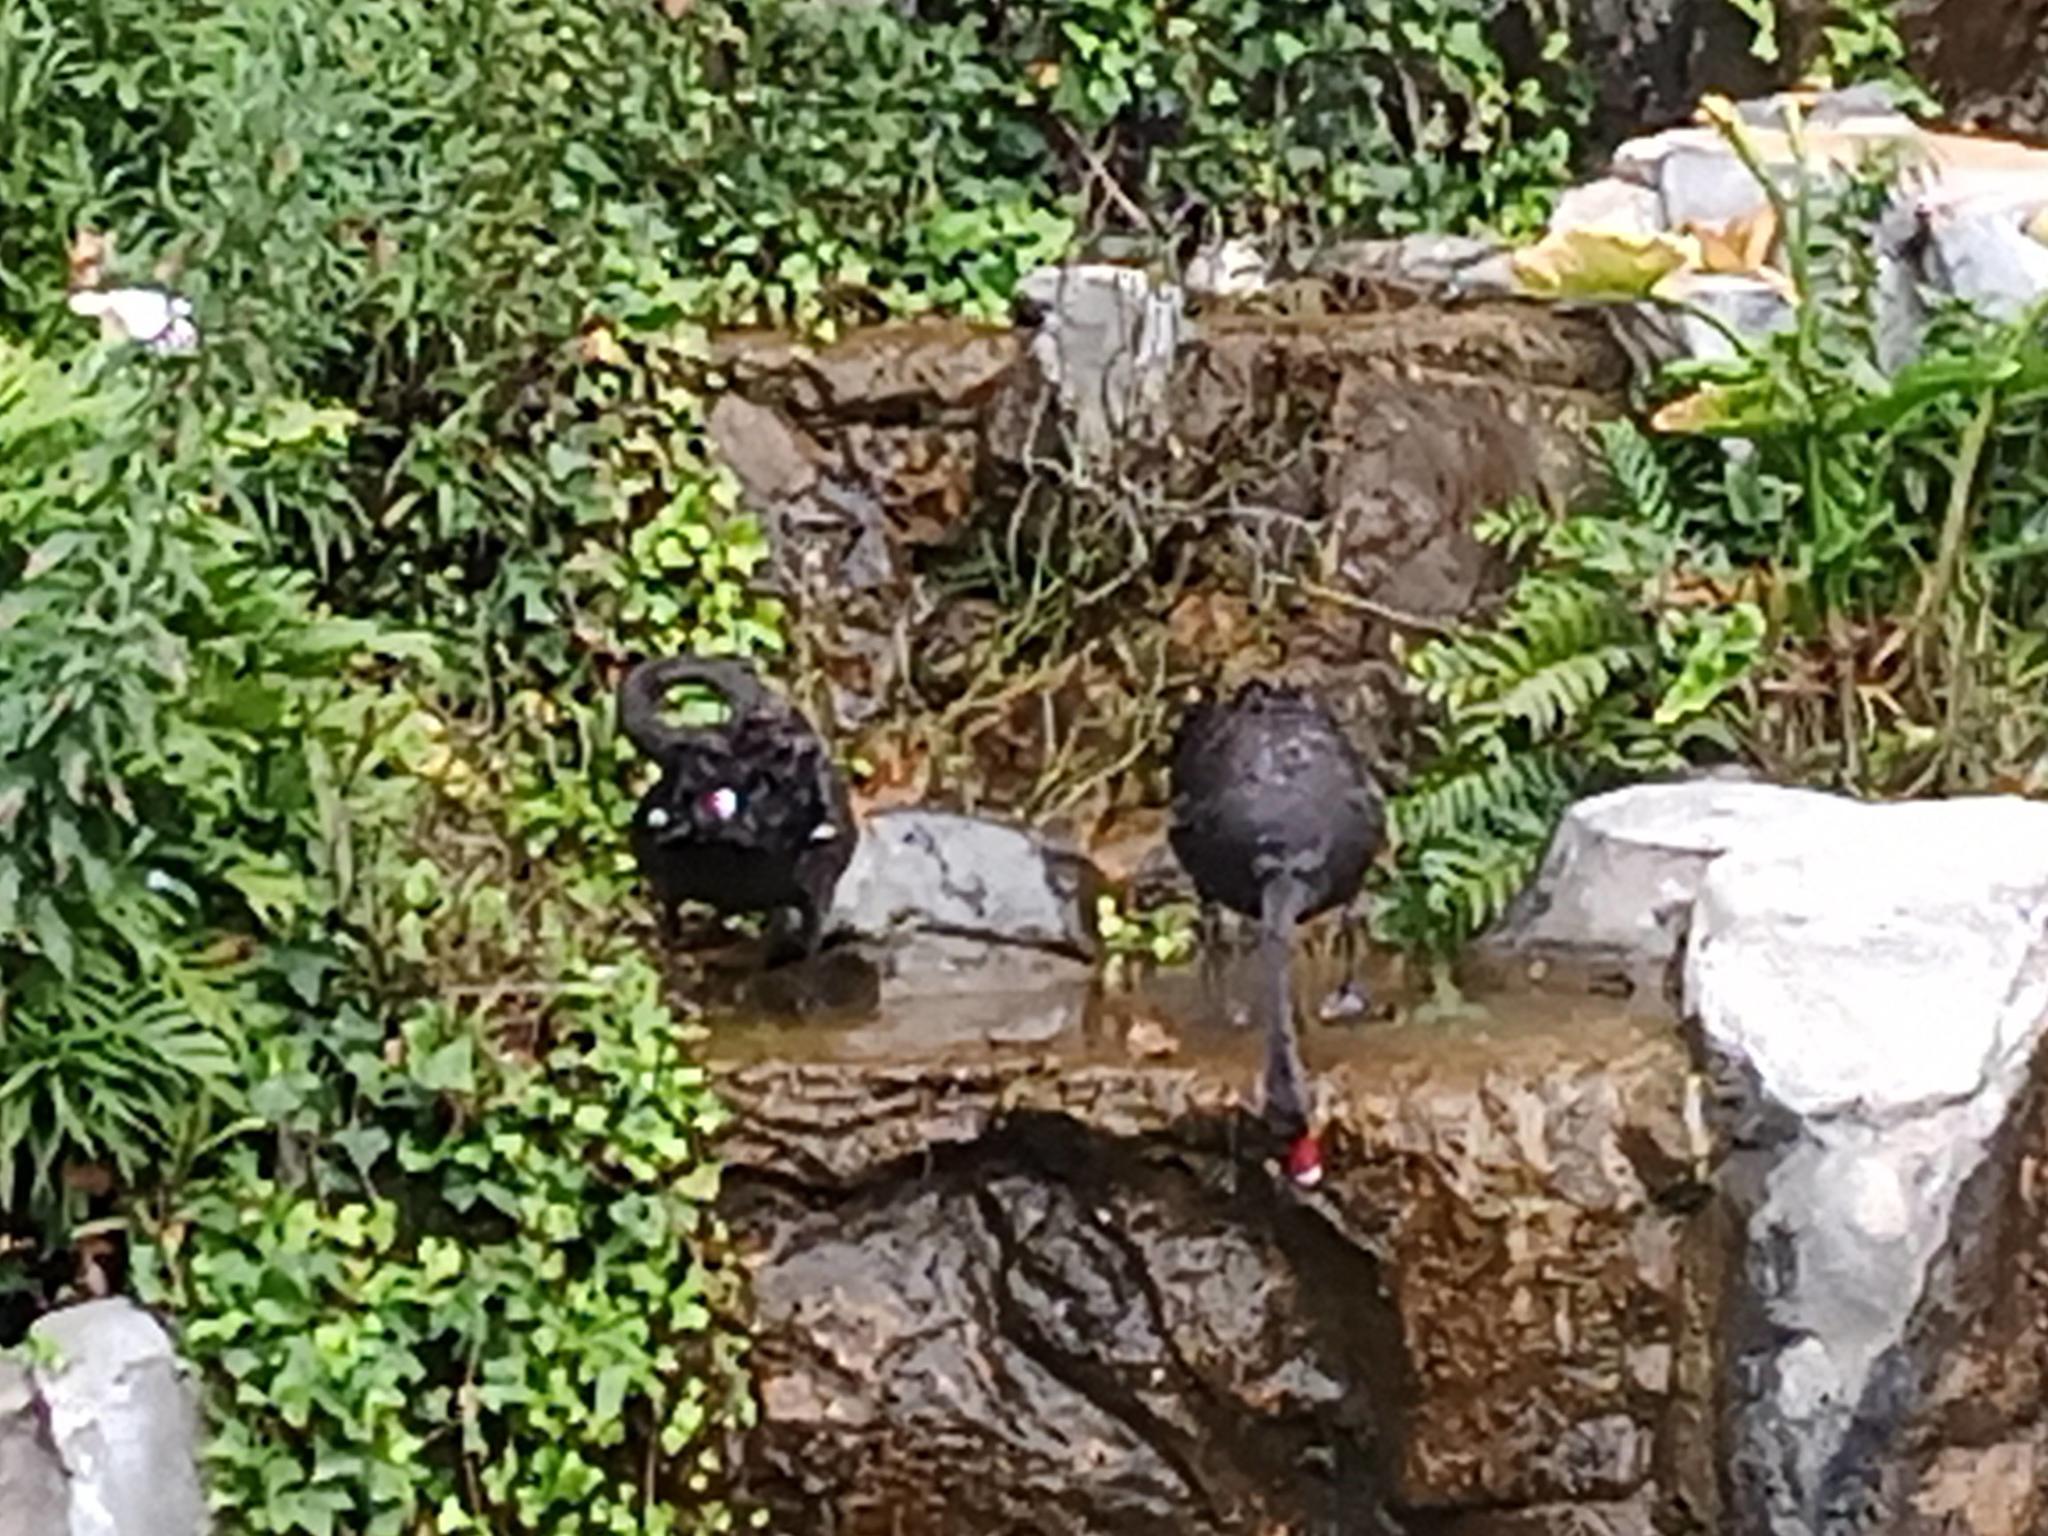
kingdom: Animalia
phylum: Chordata
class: Aves
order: Anseriformes
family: Anatidae
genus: Cygnus
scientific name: Cygnus atratus
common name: Black swan
